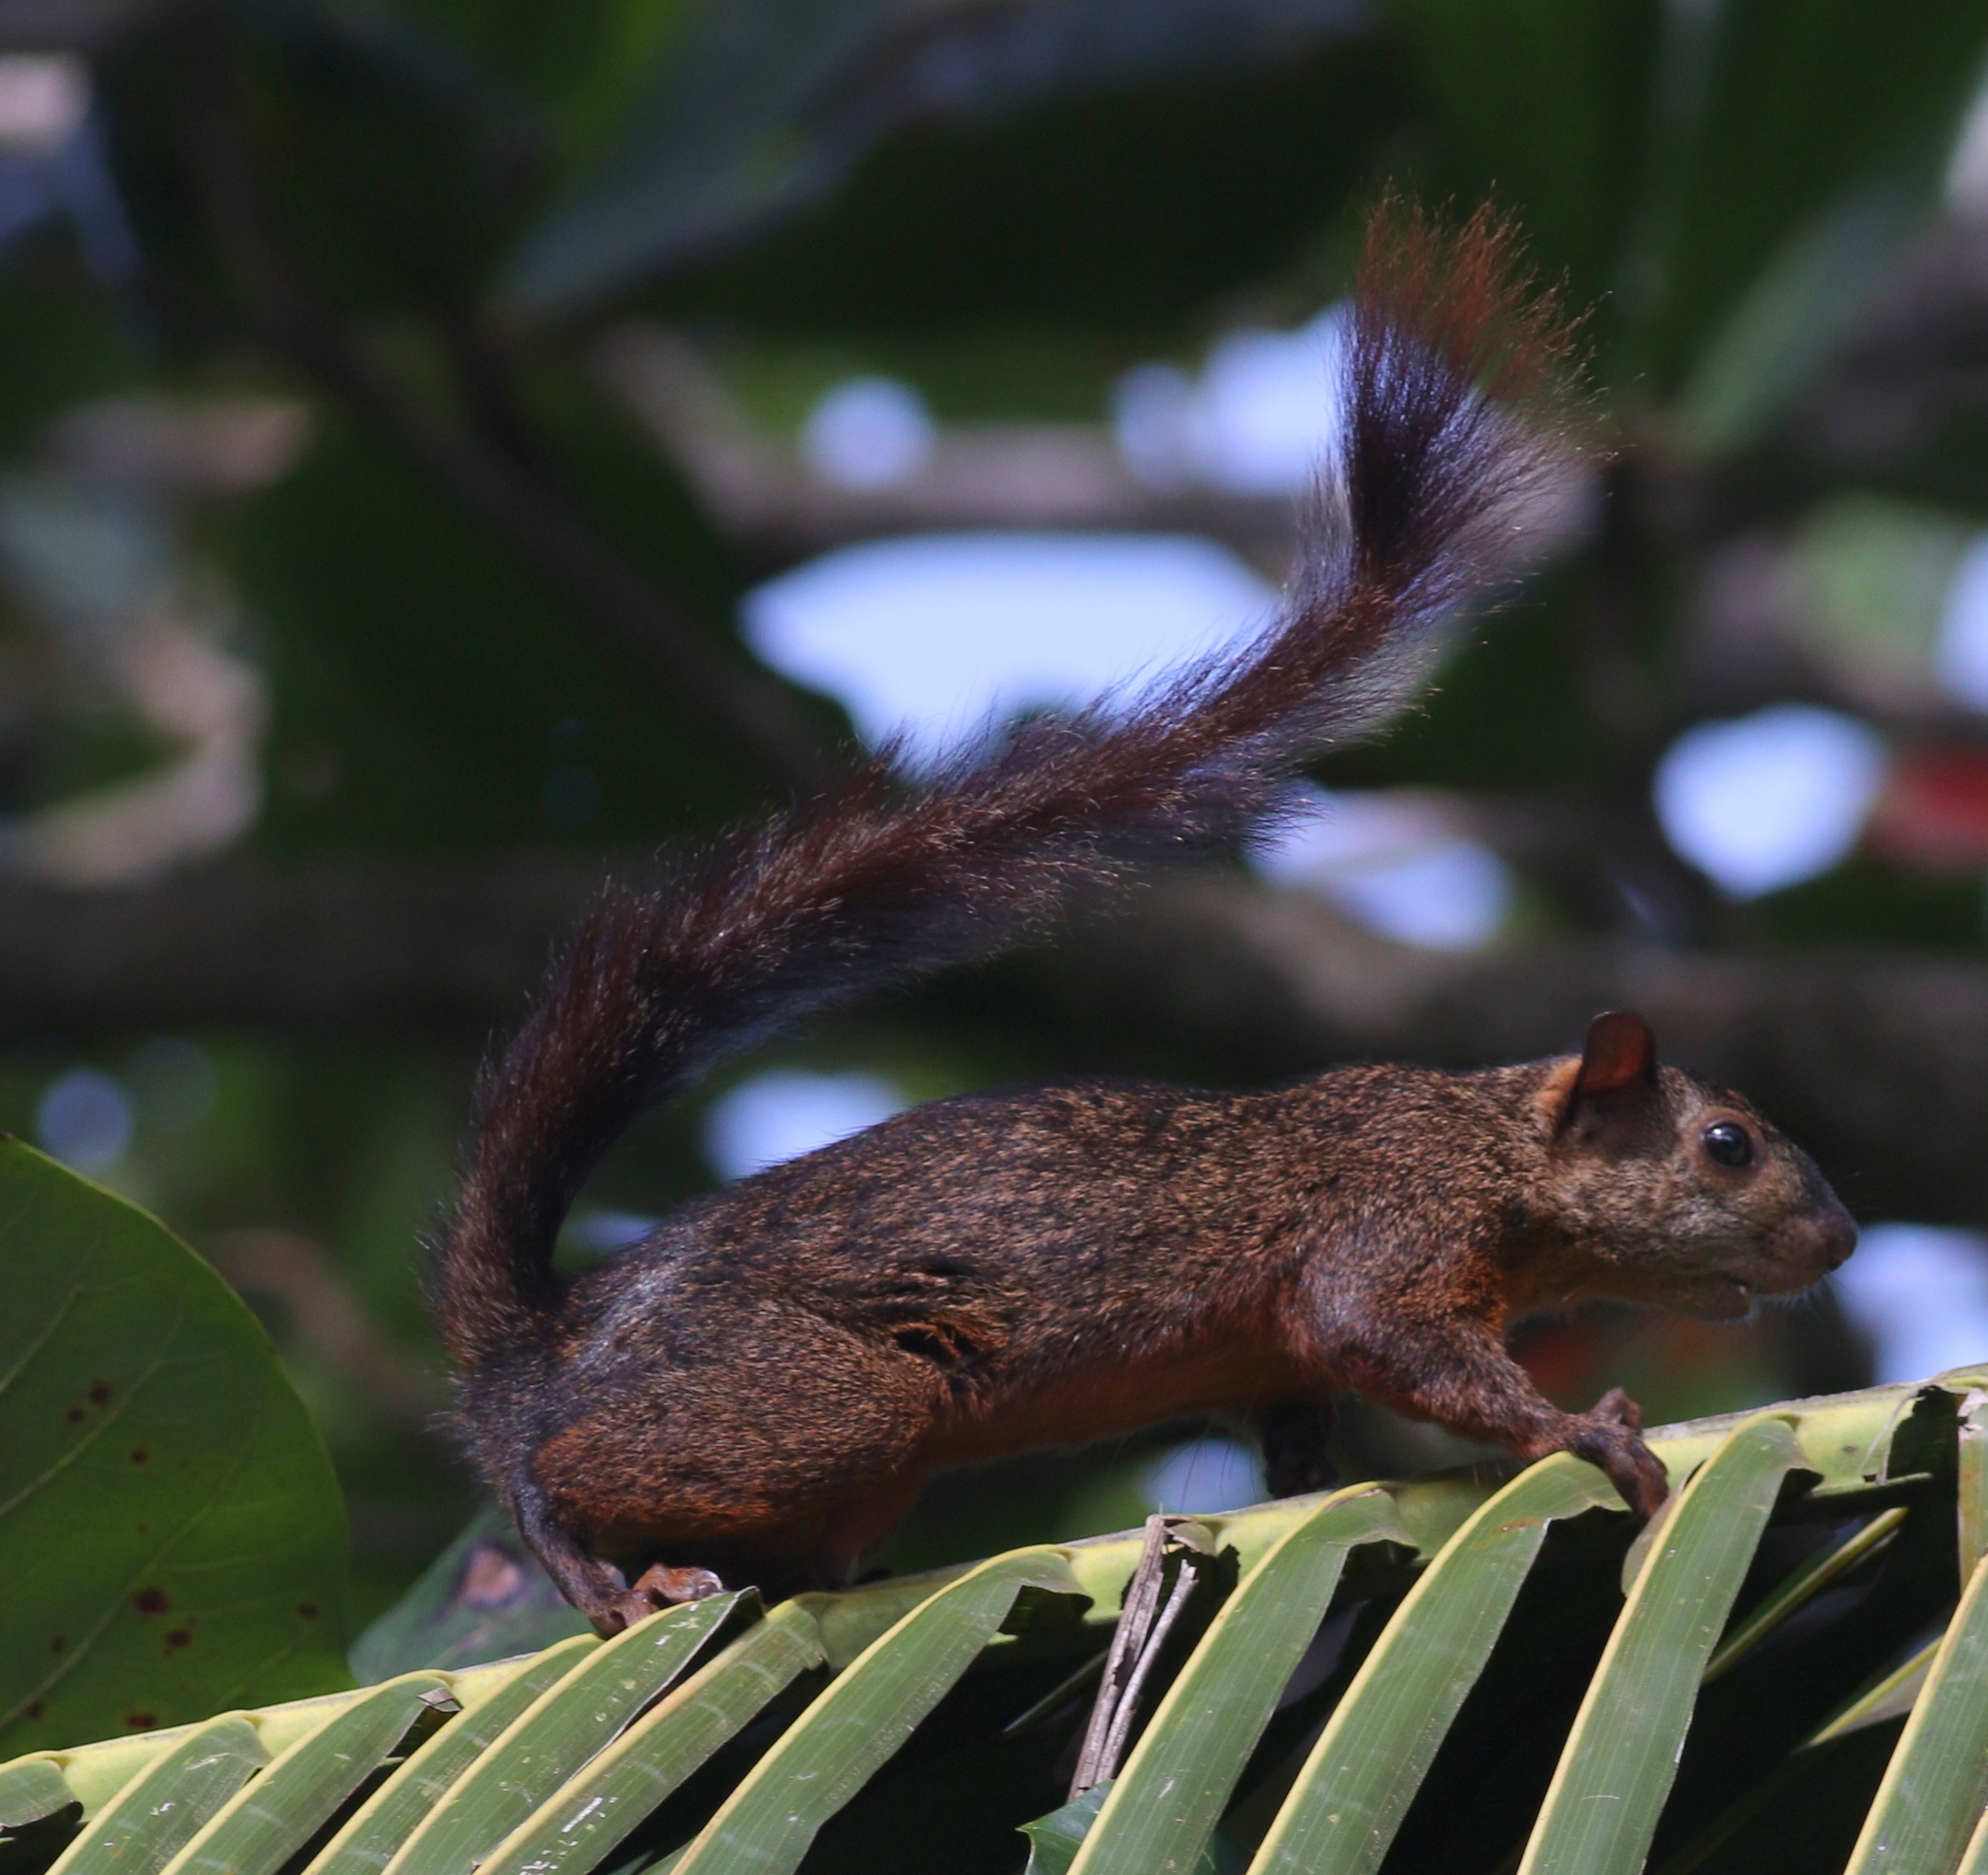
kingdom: Animalia
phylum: Chordata
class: Mammalia
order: Rodentia
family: Sciuridae
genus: Sciurus
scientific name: Sciurus variegatoides
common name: Variegated squirrel
